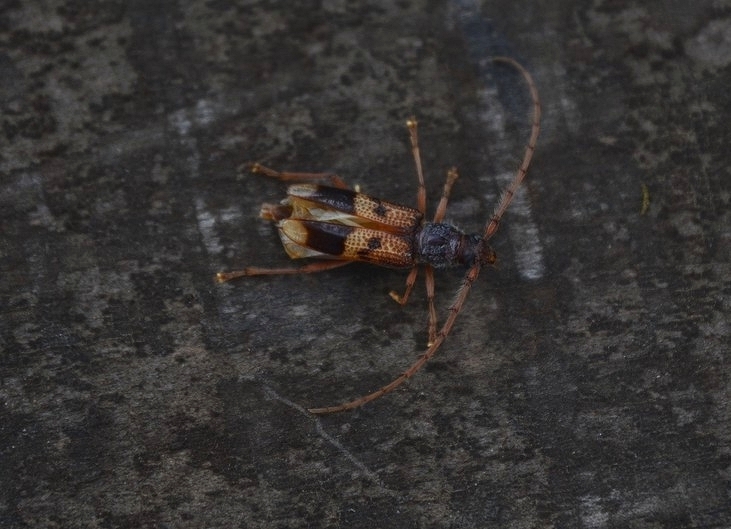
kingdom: Animalia
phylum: Arthropoda
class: Insecta
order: Coleoptera
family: Cerambycidae
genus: Phoracantha
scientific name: Phoracantha recurva
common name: Eucalyptus longhorned borer
